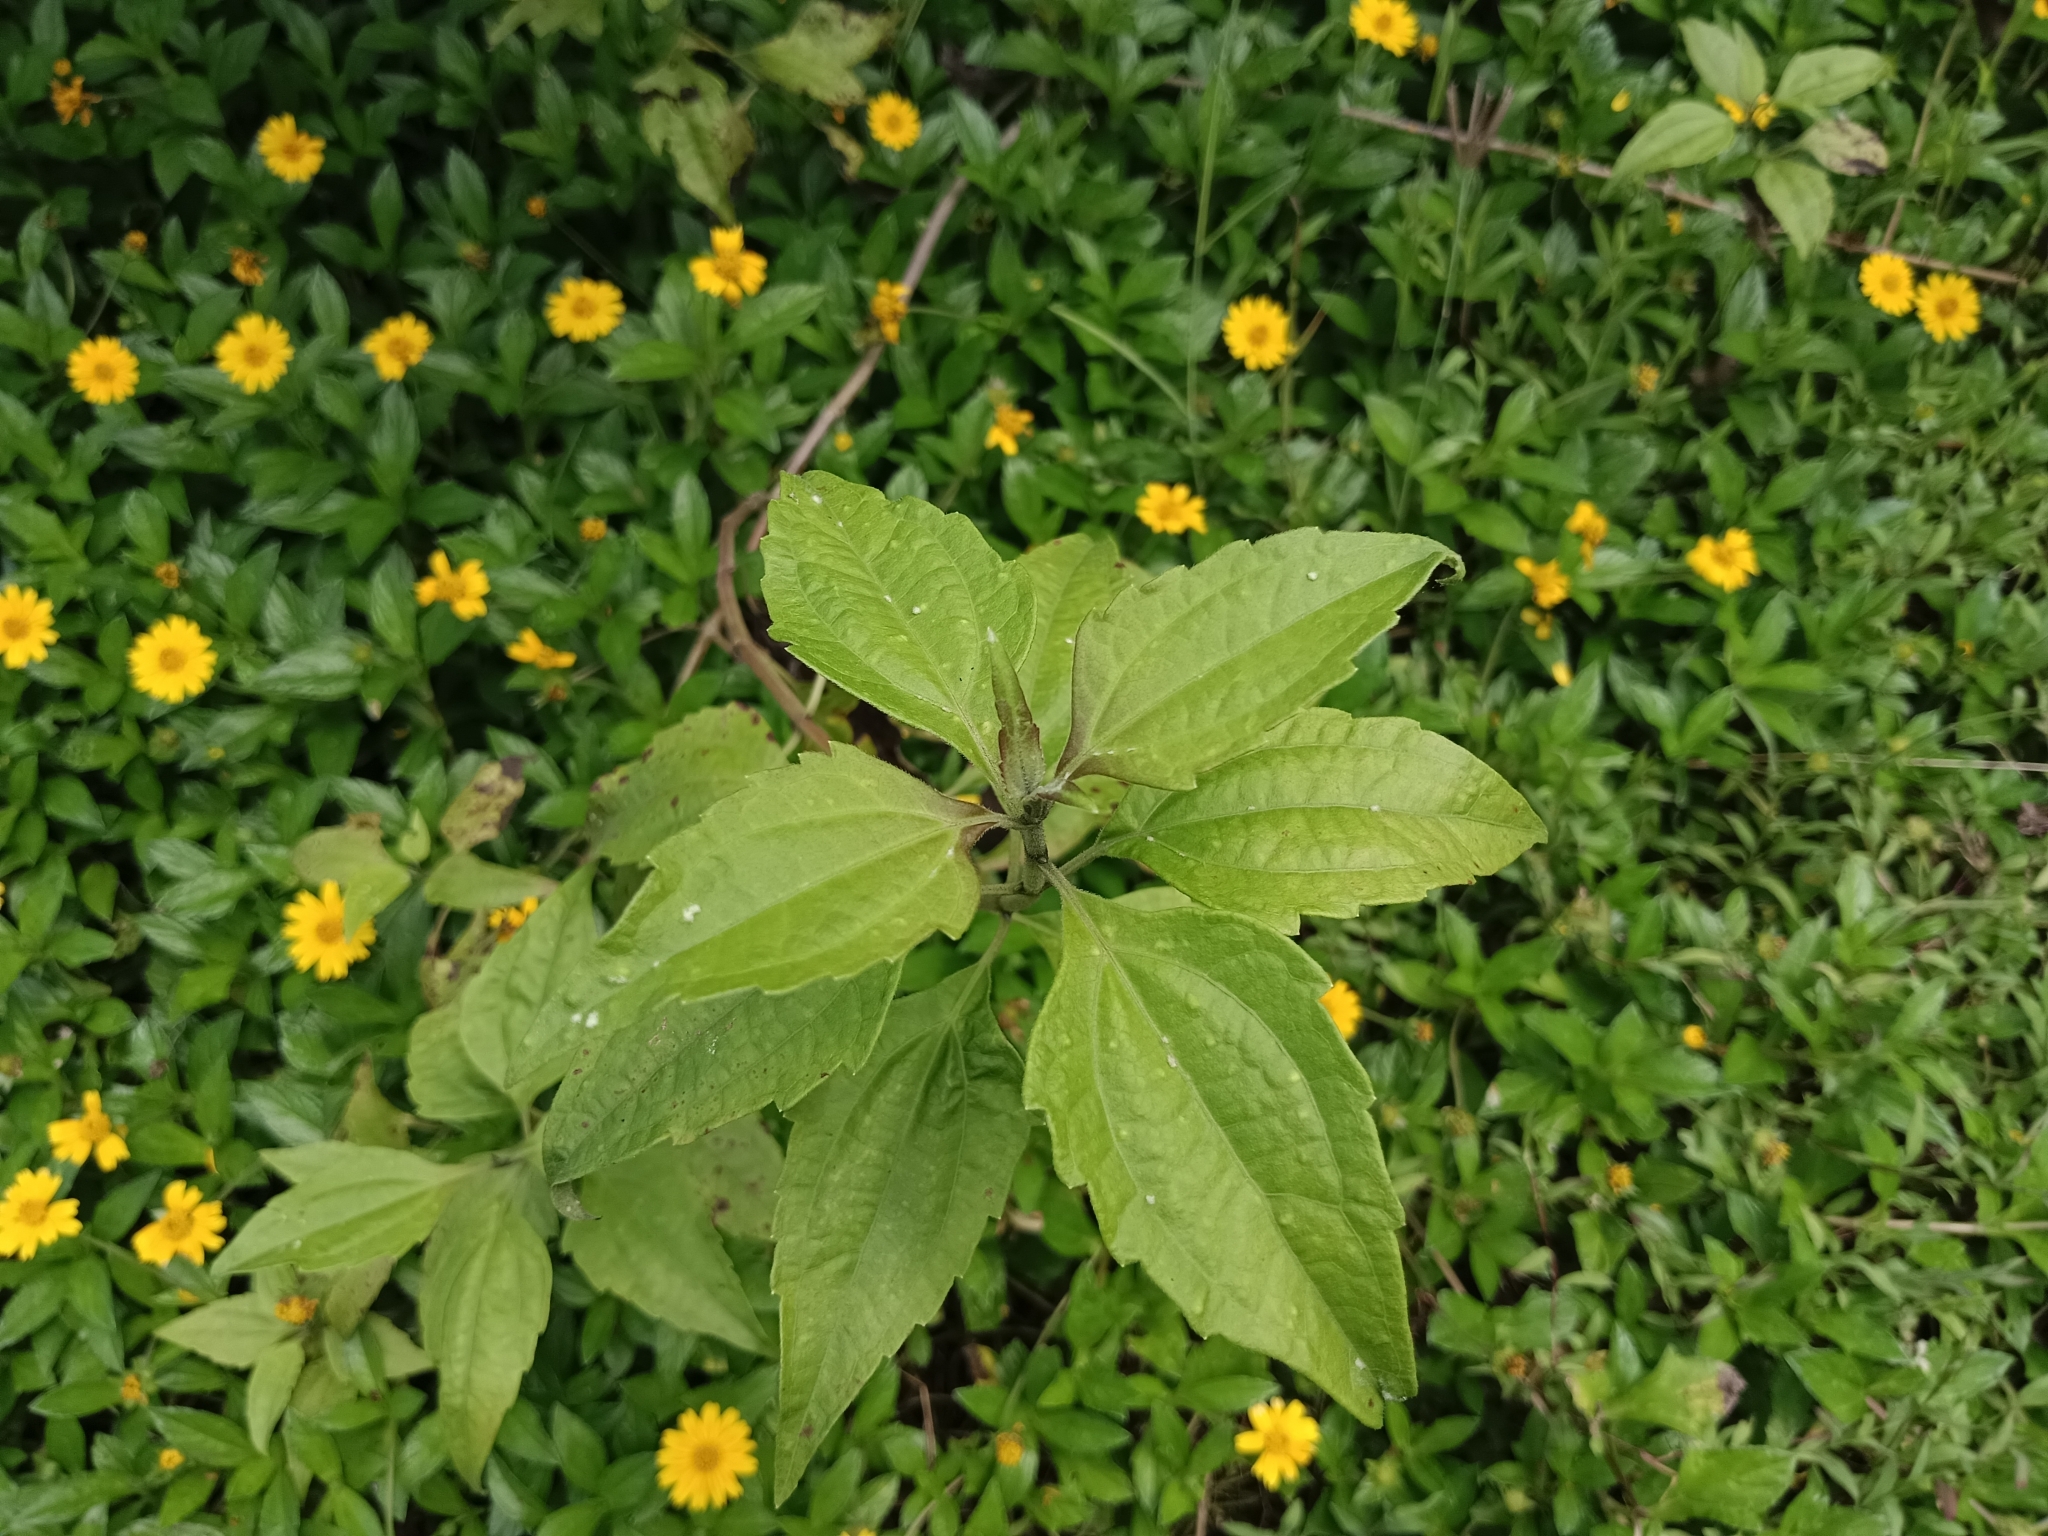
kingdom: Plantae
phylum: Tracheophyta
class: Magnoliopsida
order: Asterales
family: Asteraceae
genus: Chromolaena
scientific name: Chromolaena odorata
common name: Siamweed
